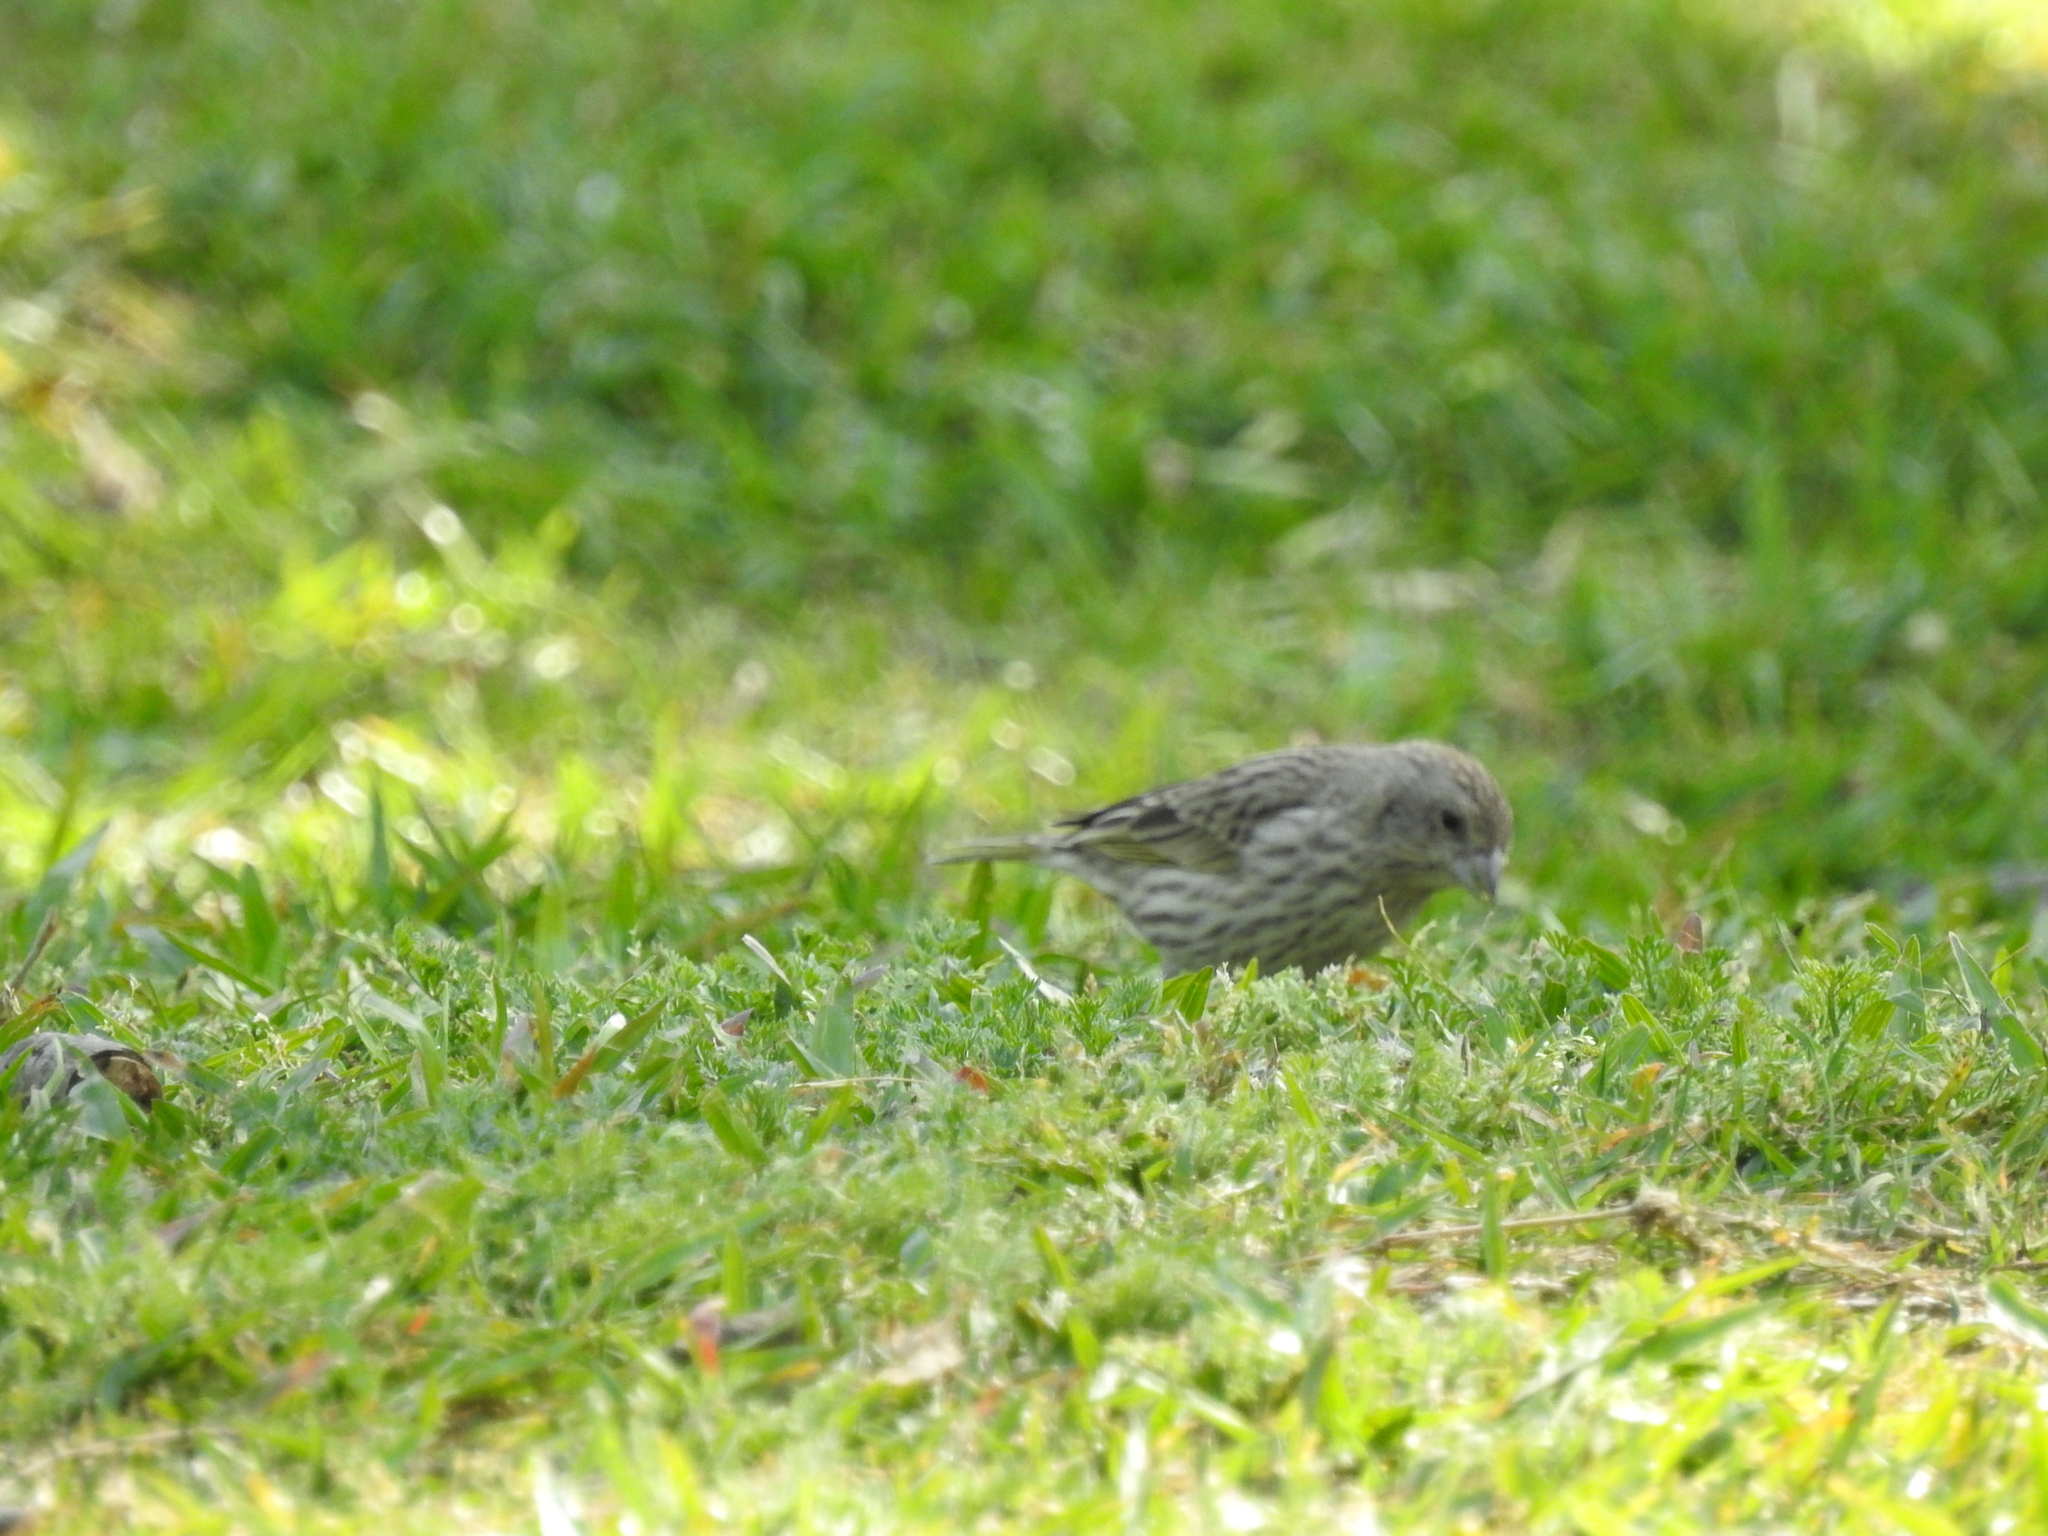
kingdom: Animalia
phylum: Chordata
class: Aves
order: Passeriformes
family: Thraupidae
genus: Sicalis
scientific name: Sicalis flaveola
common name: Saffron finch
